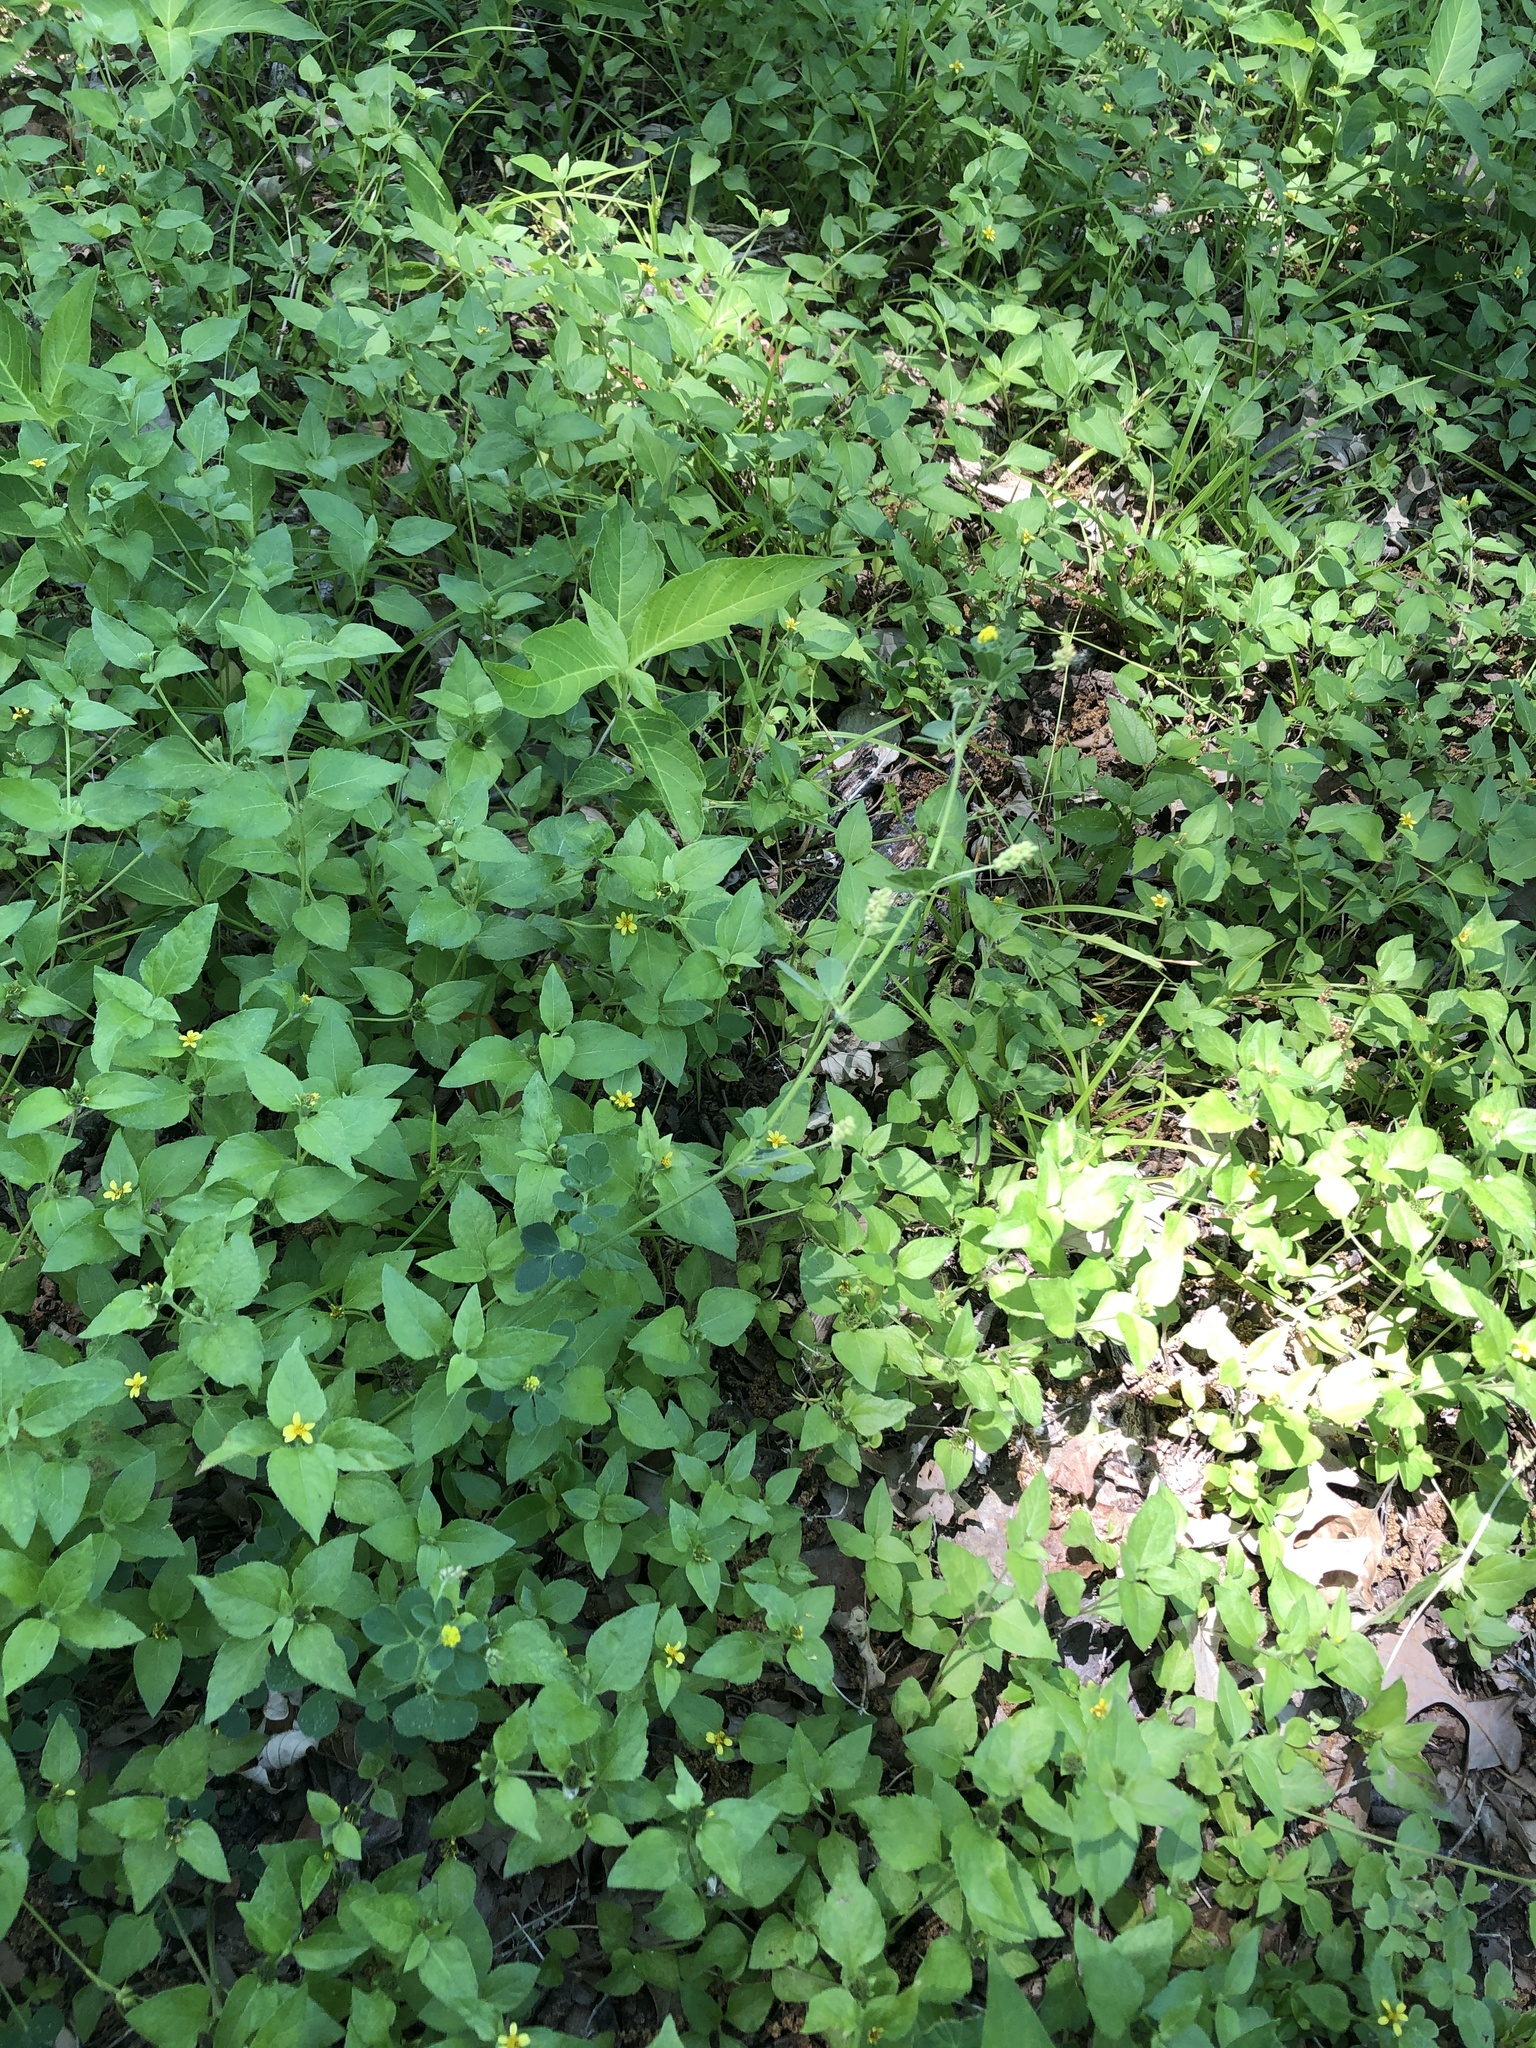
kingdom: Plantae
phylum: Tracheophyta
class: Magnoliopsida
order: Fabales
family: Fabaceae
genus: Medicago
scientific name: Medicago lupulina
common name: Black medick
